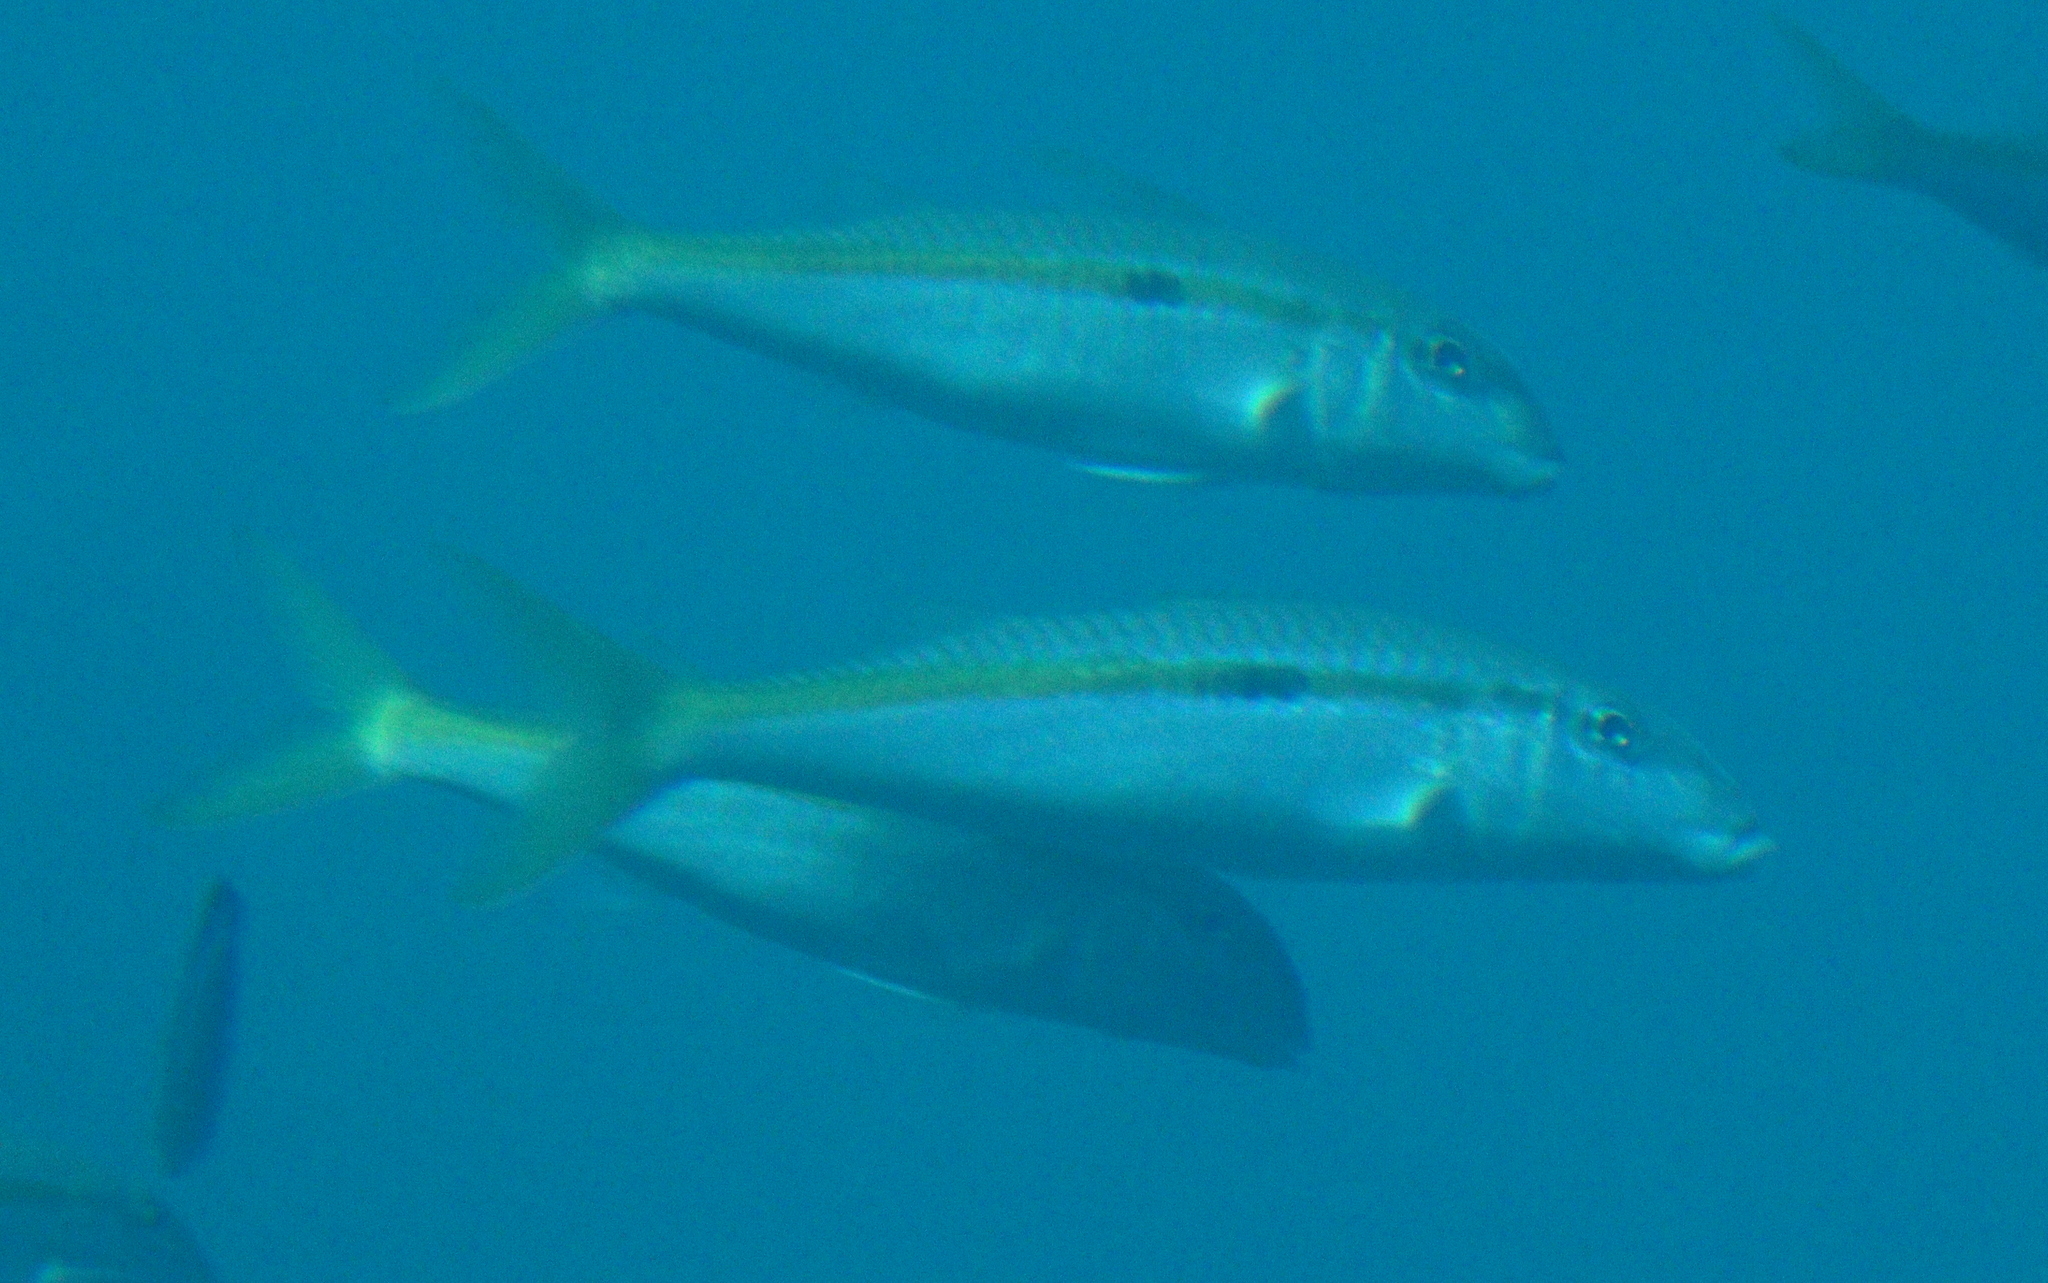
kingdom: Animalia
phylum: Chordata
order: Perciformes
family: Mullidae
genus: Mulloidichthys
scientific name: Mulloidichthys flavolineatus
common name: Yellowstripe goatfish
